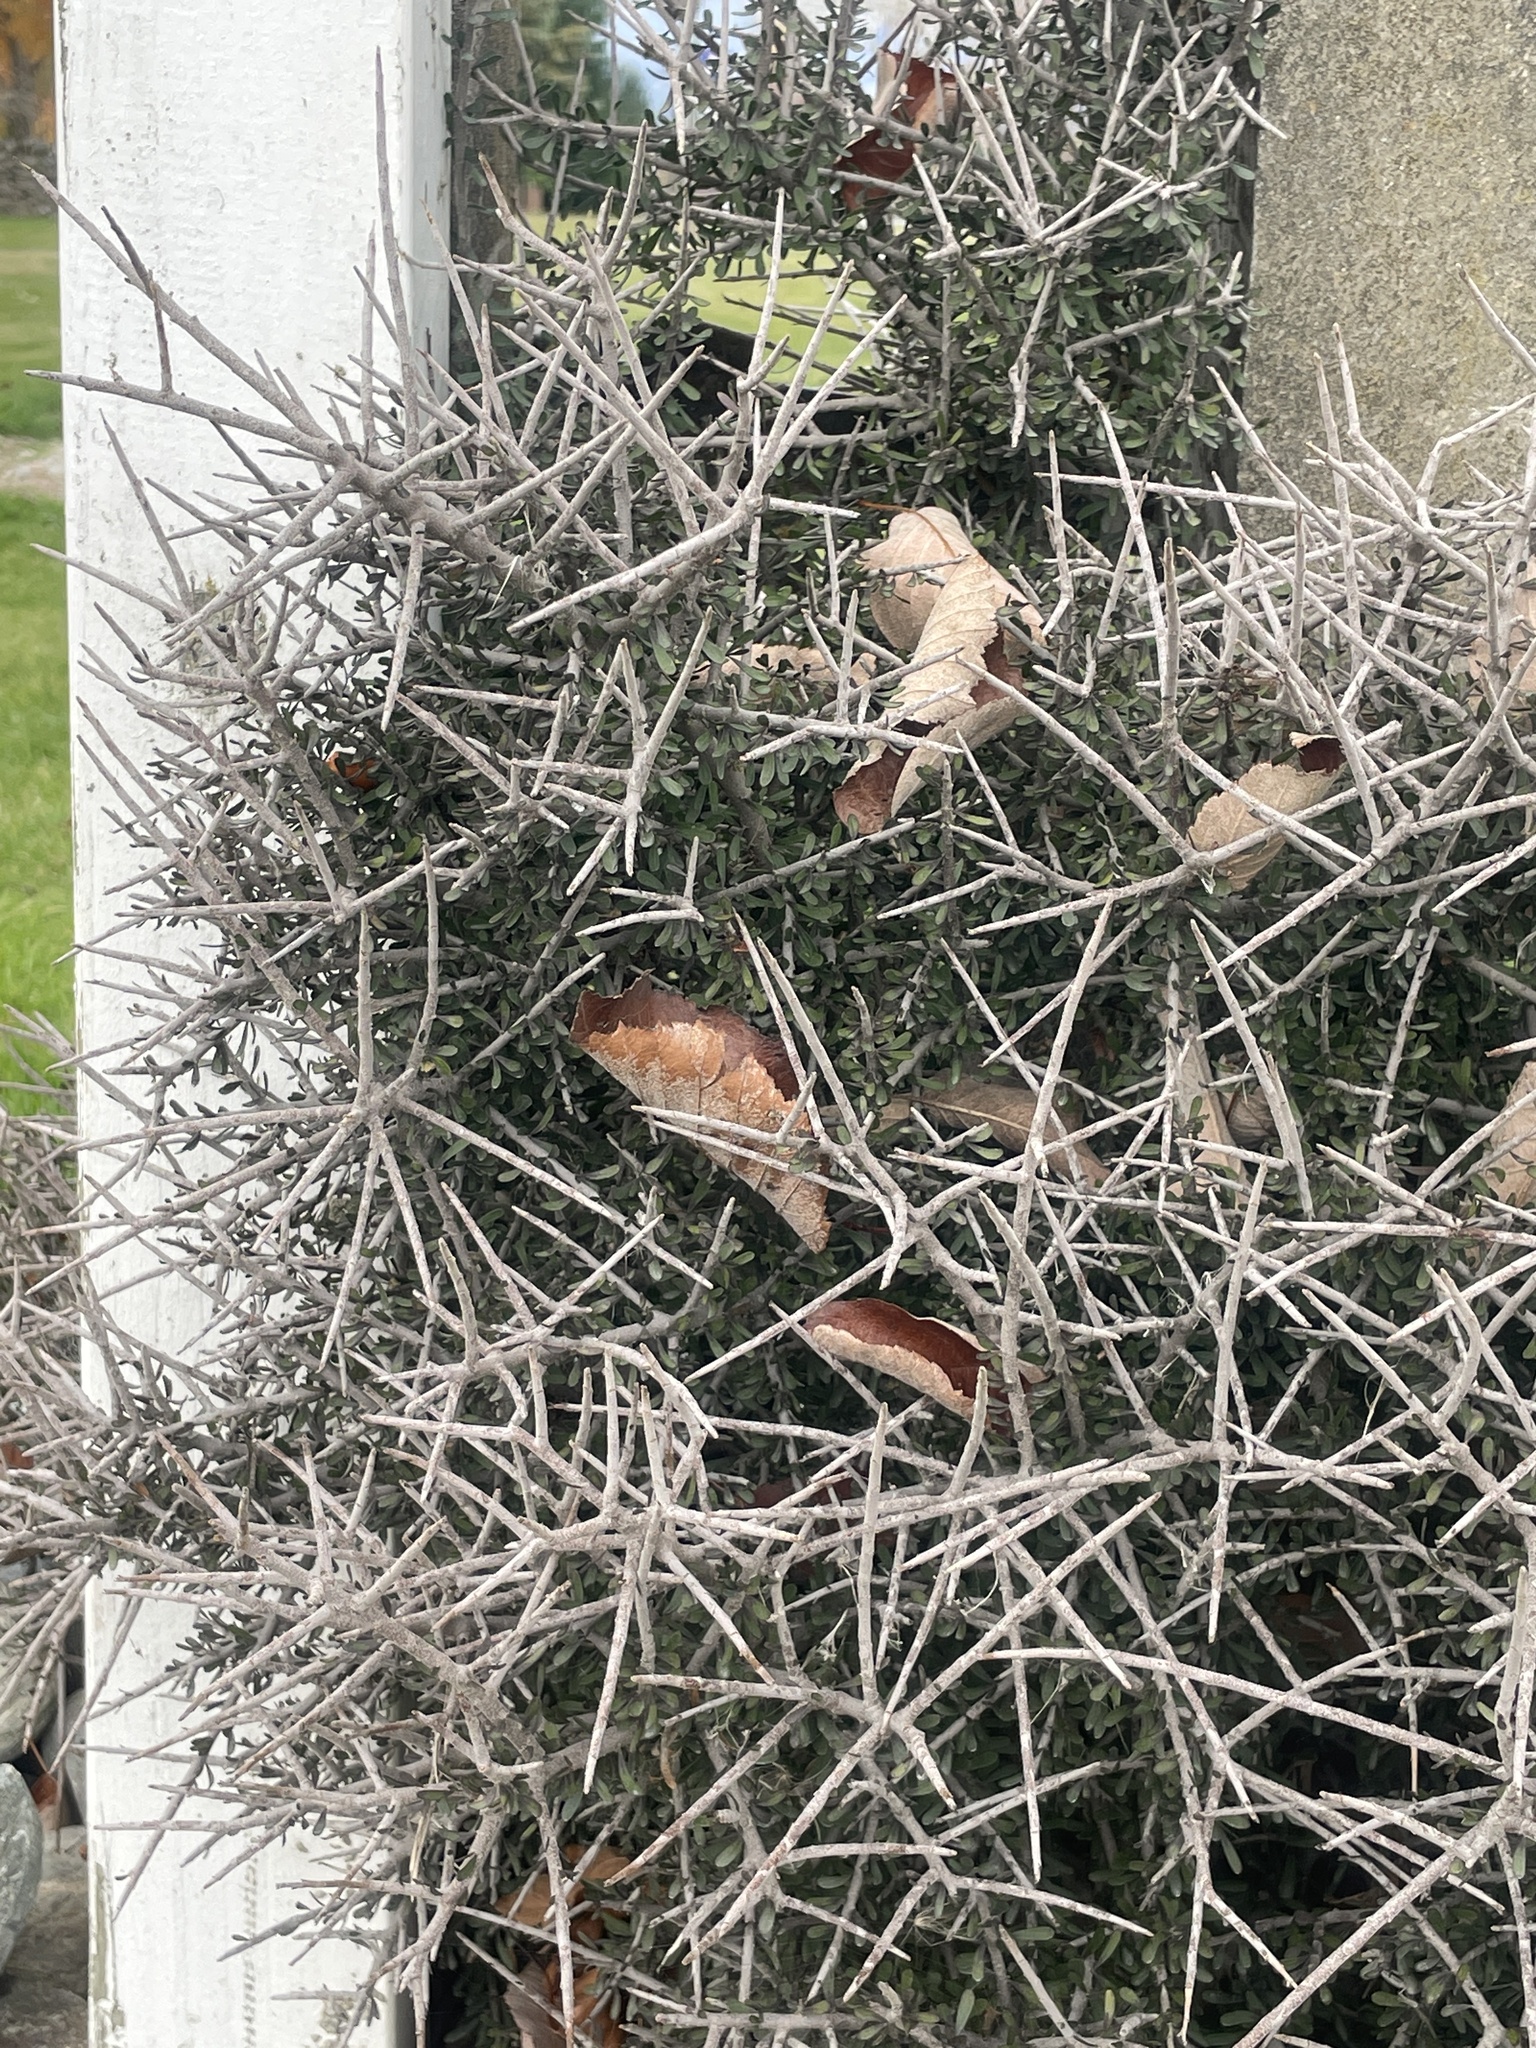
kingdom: Plantae
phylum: Tracheophyta
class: Magnoliopsida
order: Malpighiales
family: Violaceae
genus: Melicytus
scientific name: Melicytus alpinus
